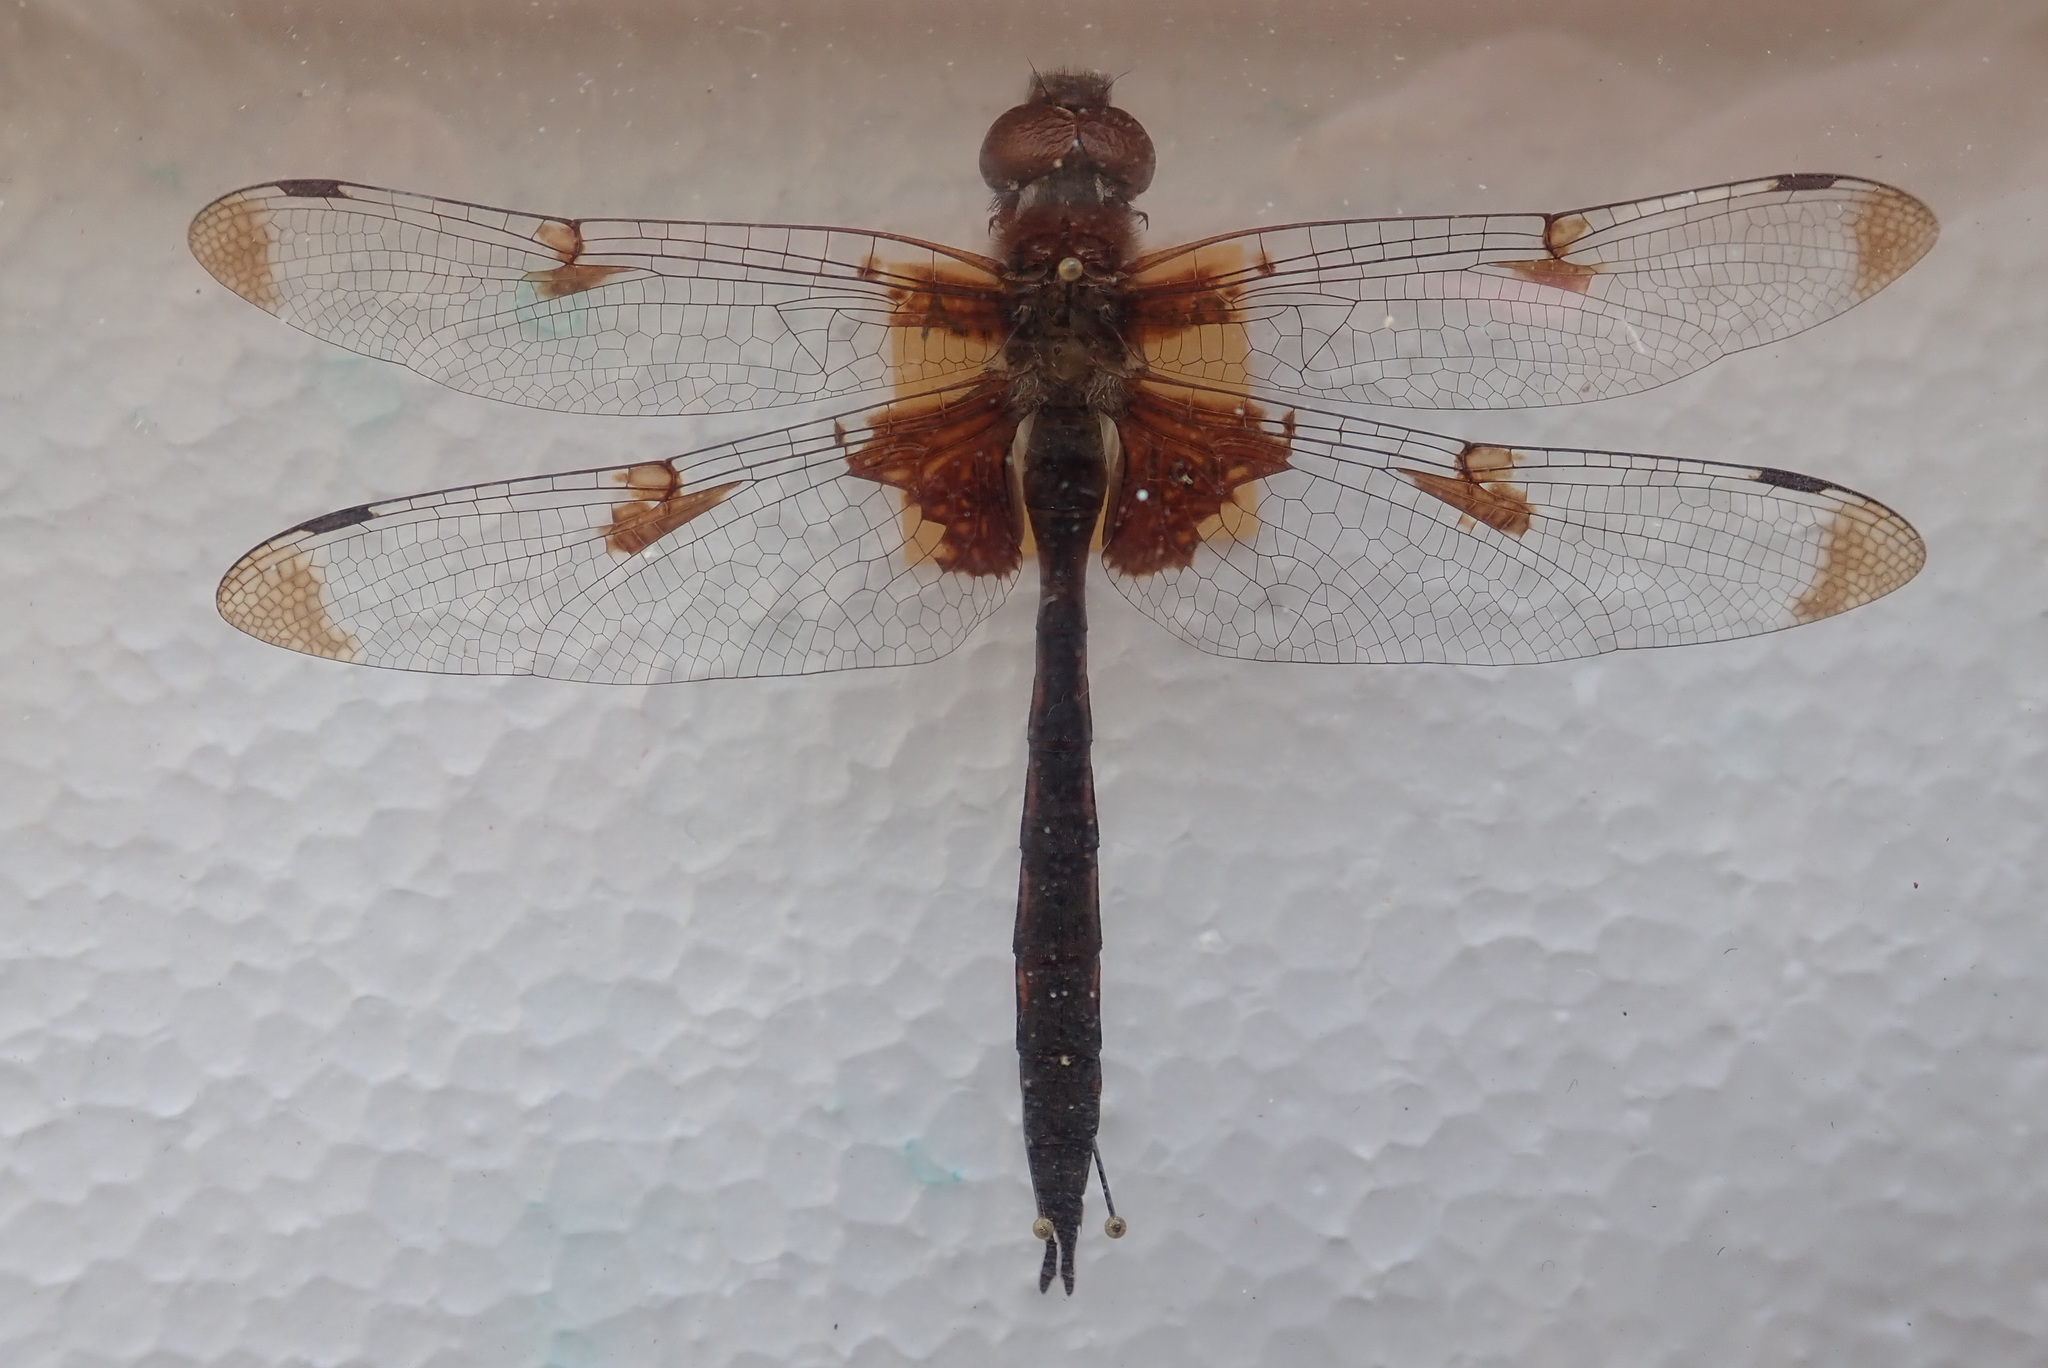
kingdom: Animalia
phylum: Arthropoda
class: Insecta
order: Odonata
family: Corduliidae
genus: Epitheca
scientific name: Epitheca princeps
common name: Prince baskettail
